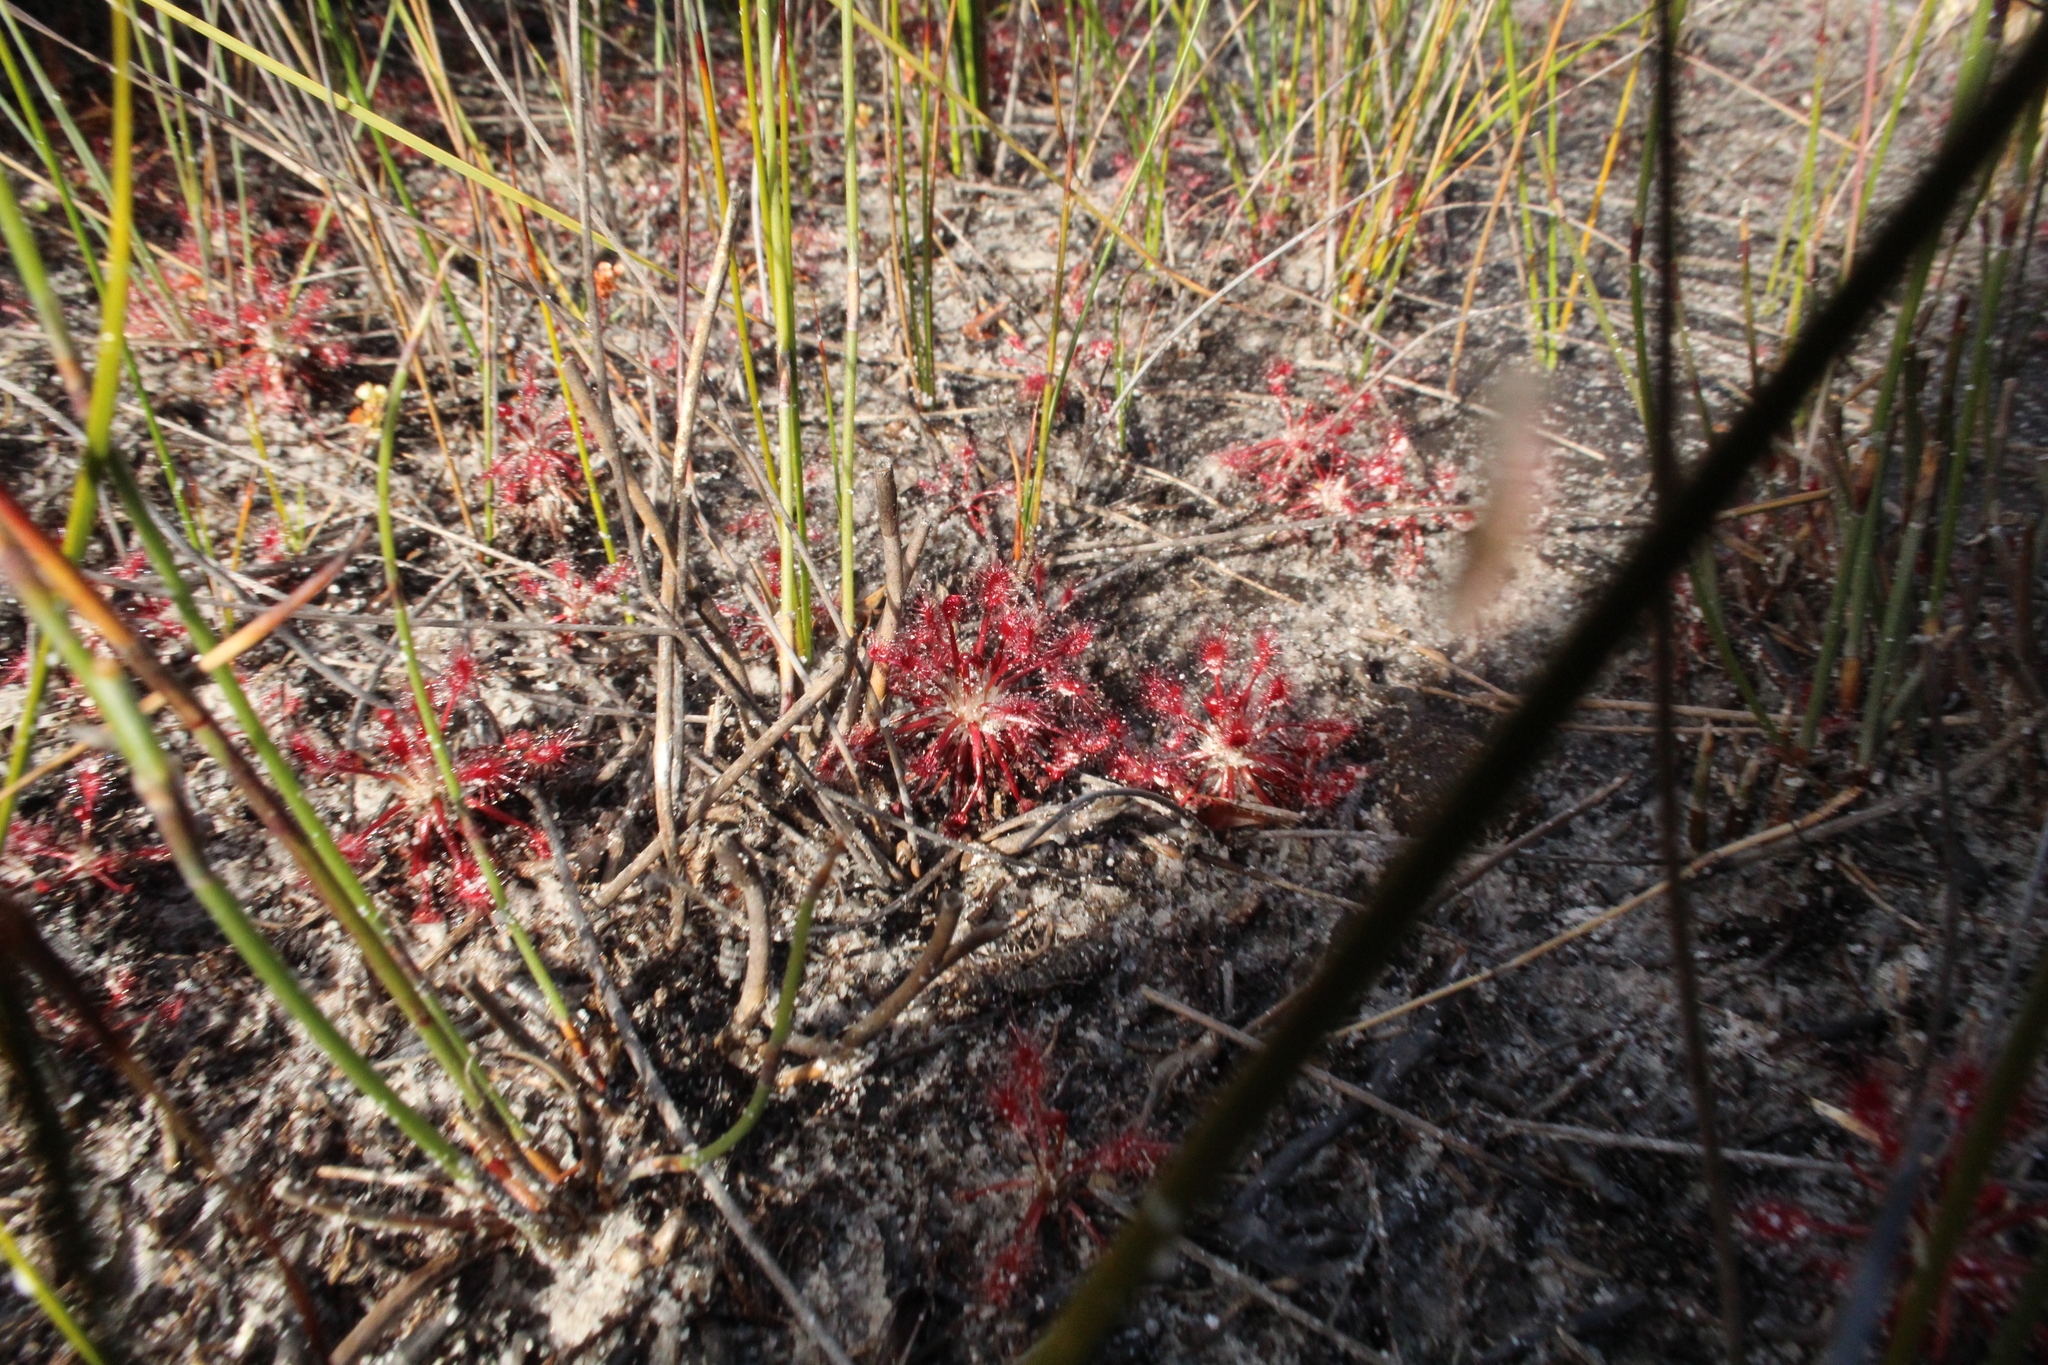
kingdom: Plantae
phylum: Tracheophyta
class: Magnoliopsida
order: Caryophyllales
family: Droseraceae
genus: Drosera
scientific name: Drosera paleacea
